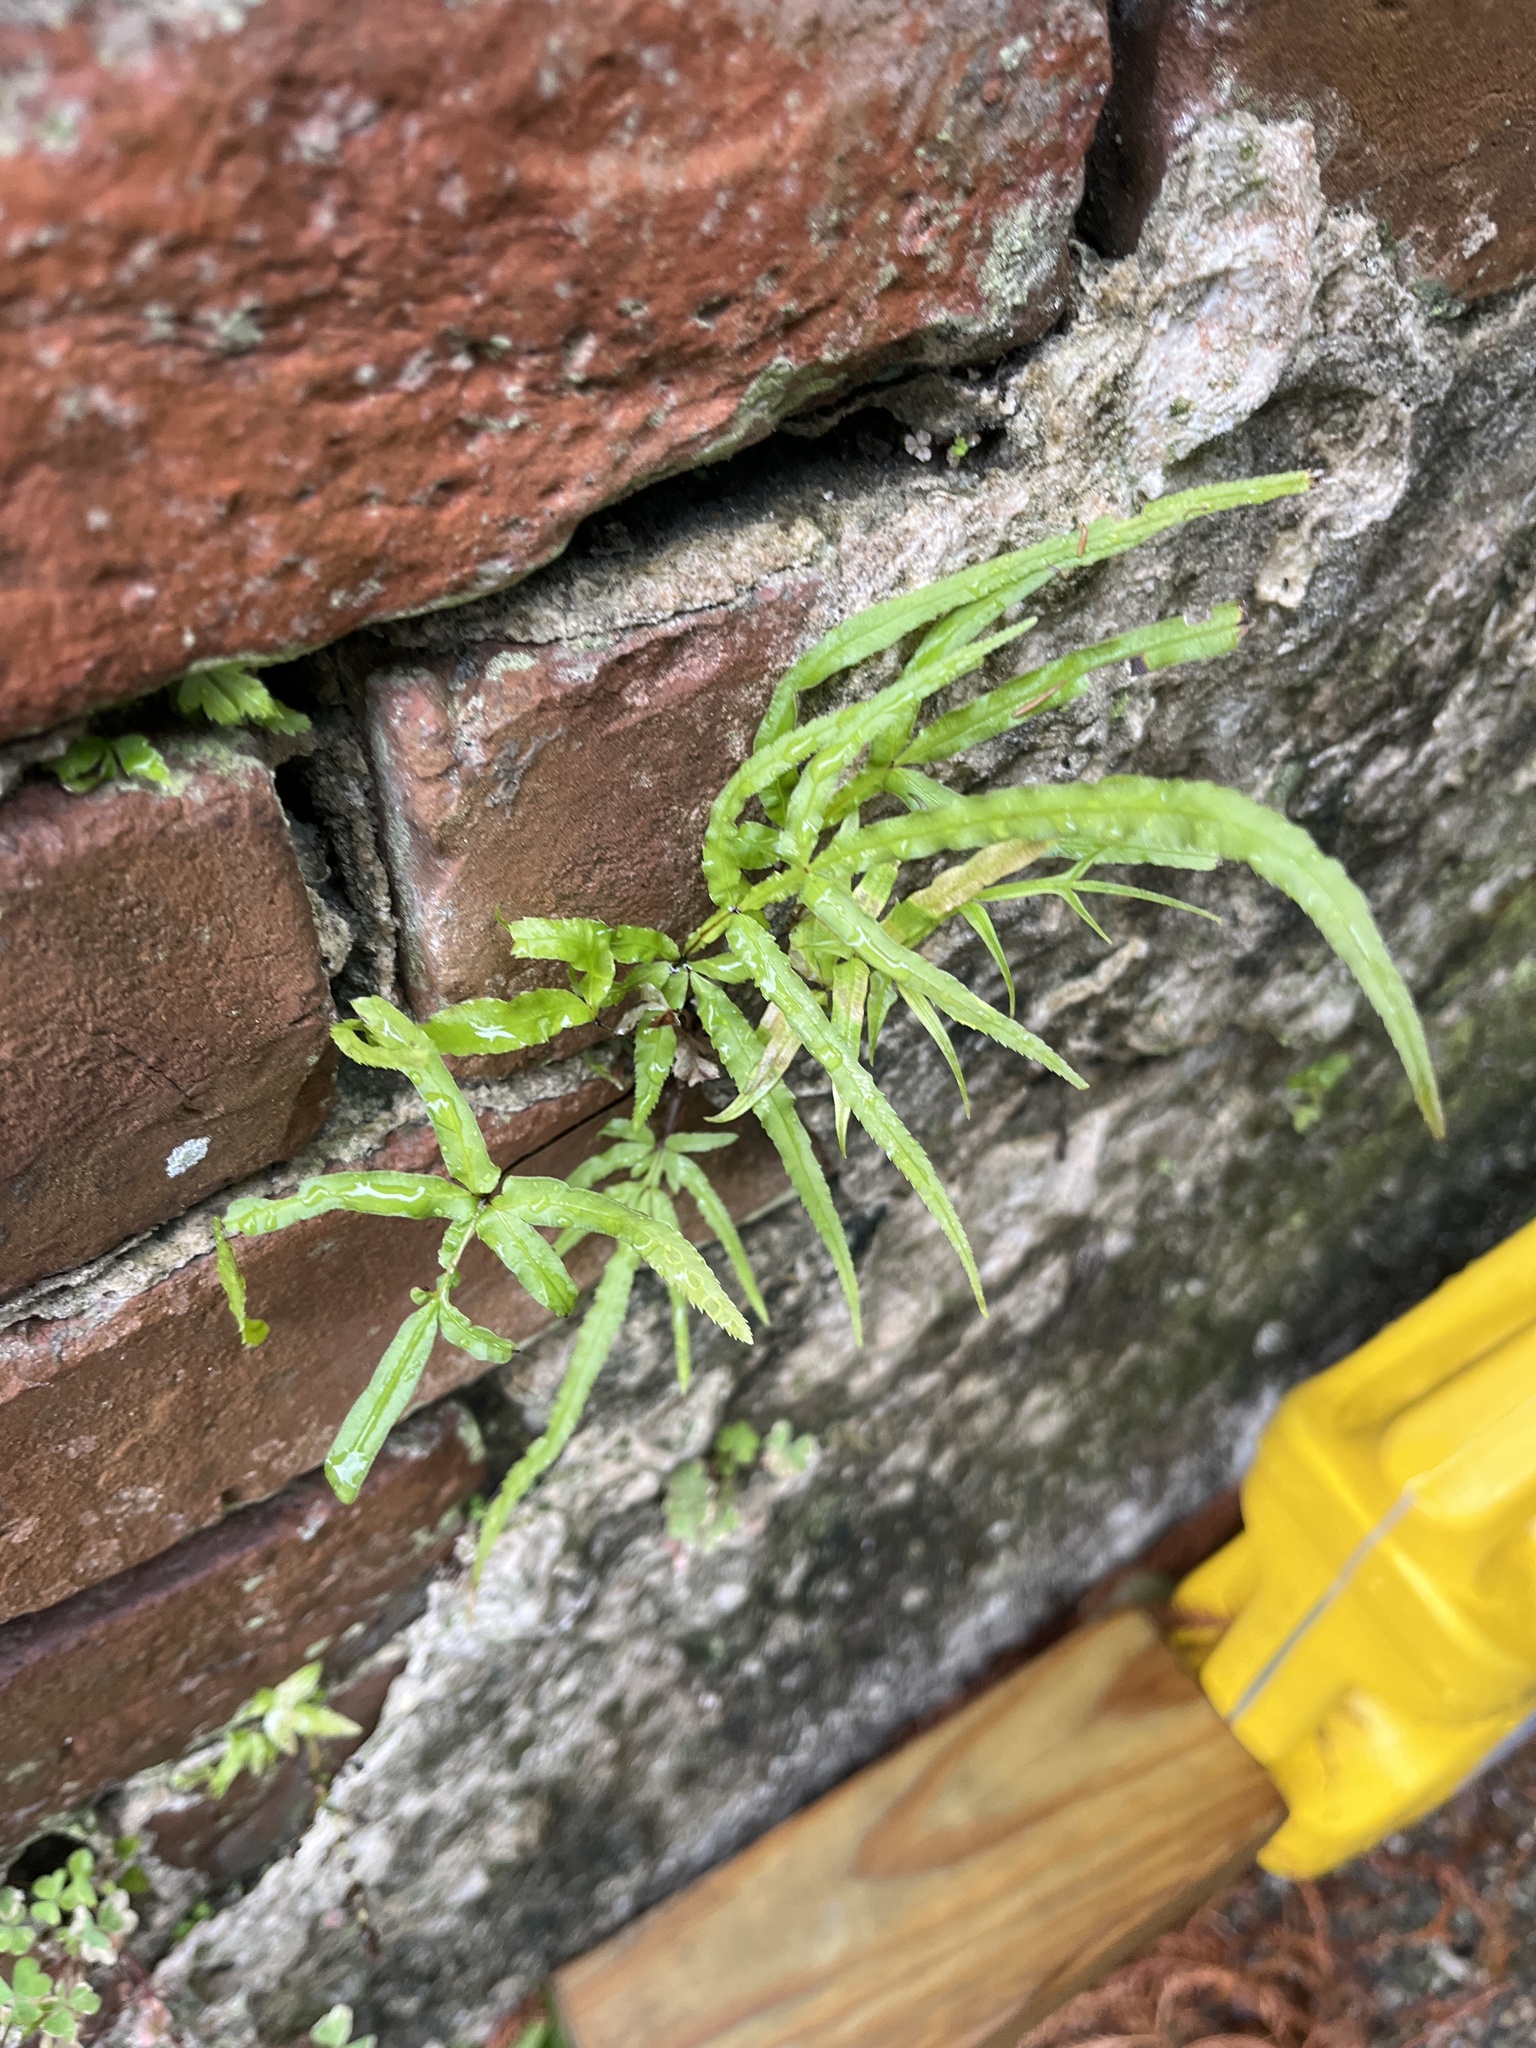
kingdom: Plantae
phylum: Tracheophyta
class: Polypodiopsida
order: Polypodiales
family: Pteridaceae
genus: Pteris
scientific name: Pteris multifida
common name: Spider brake
